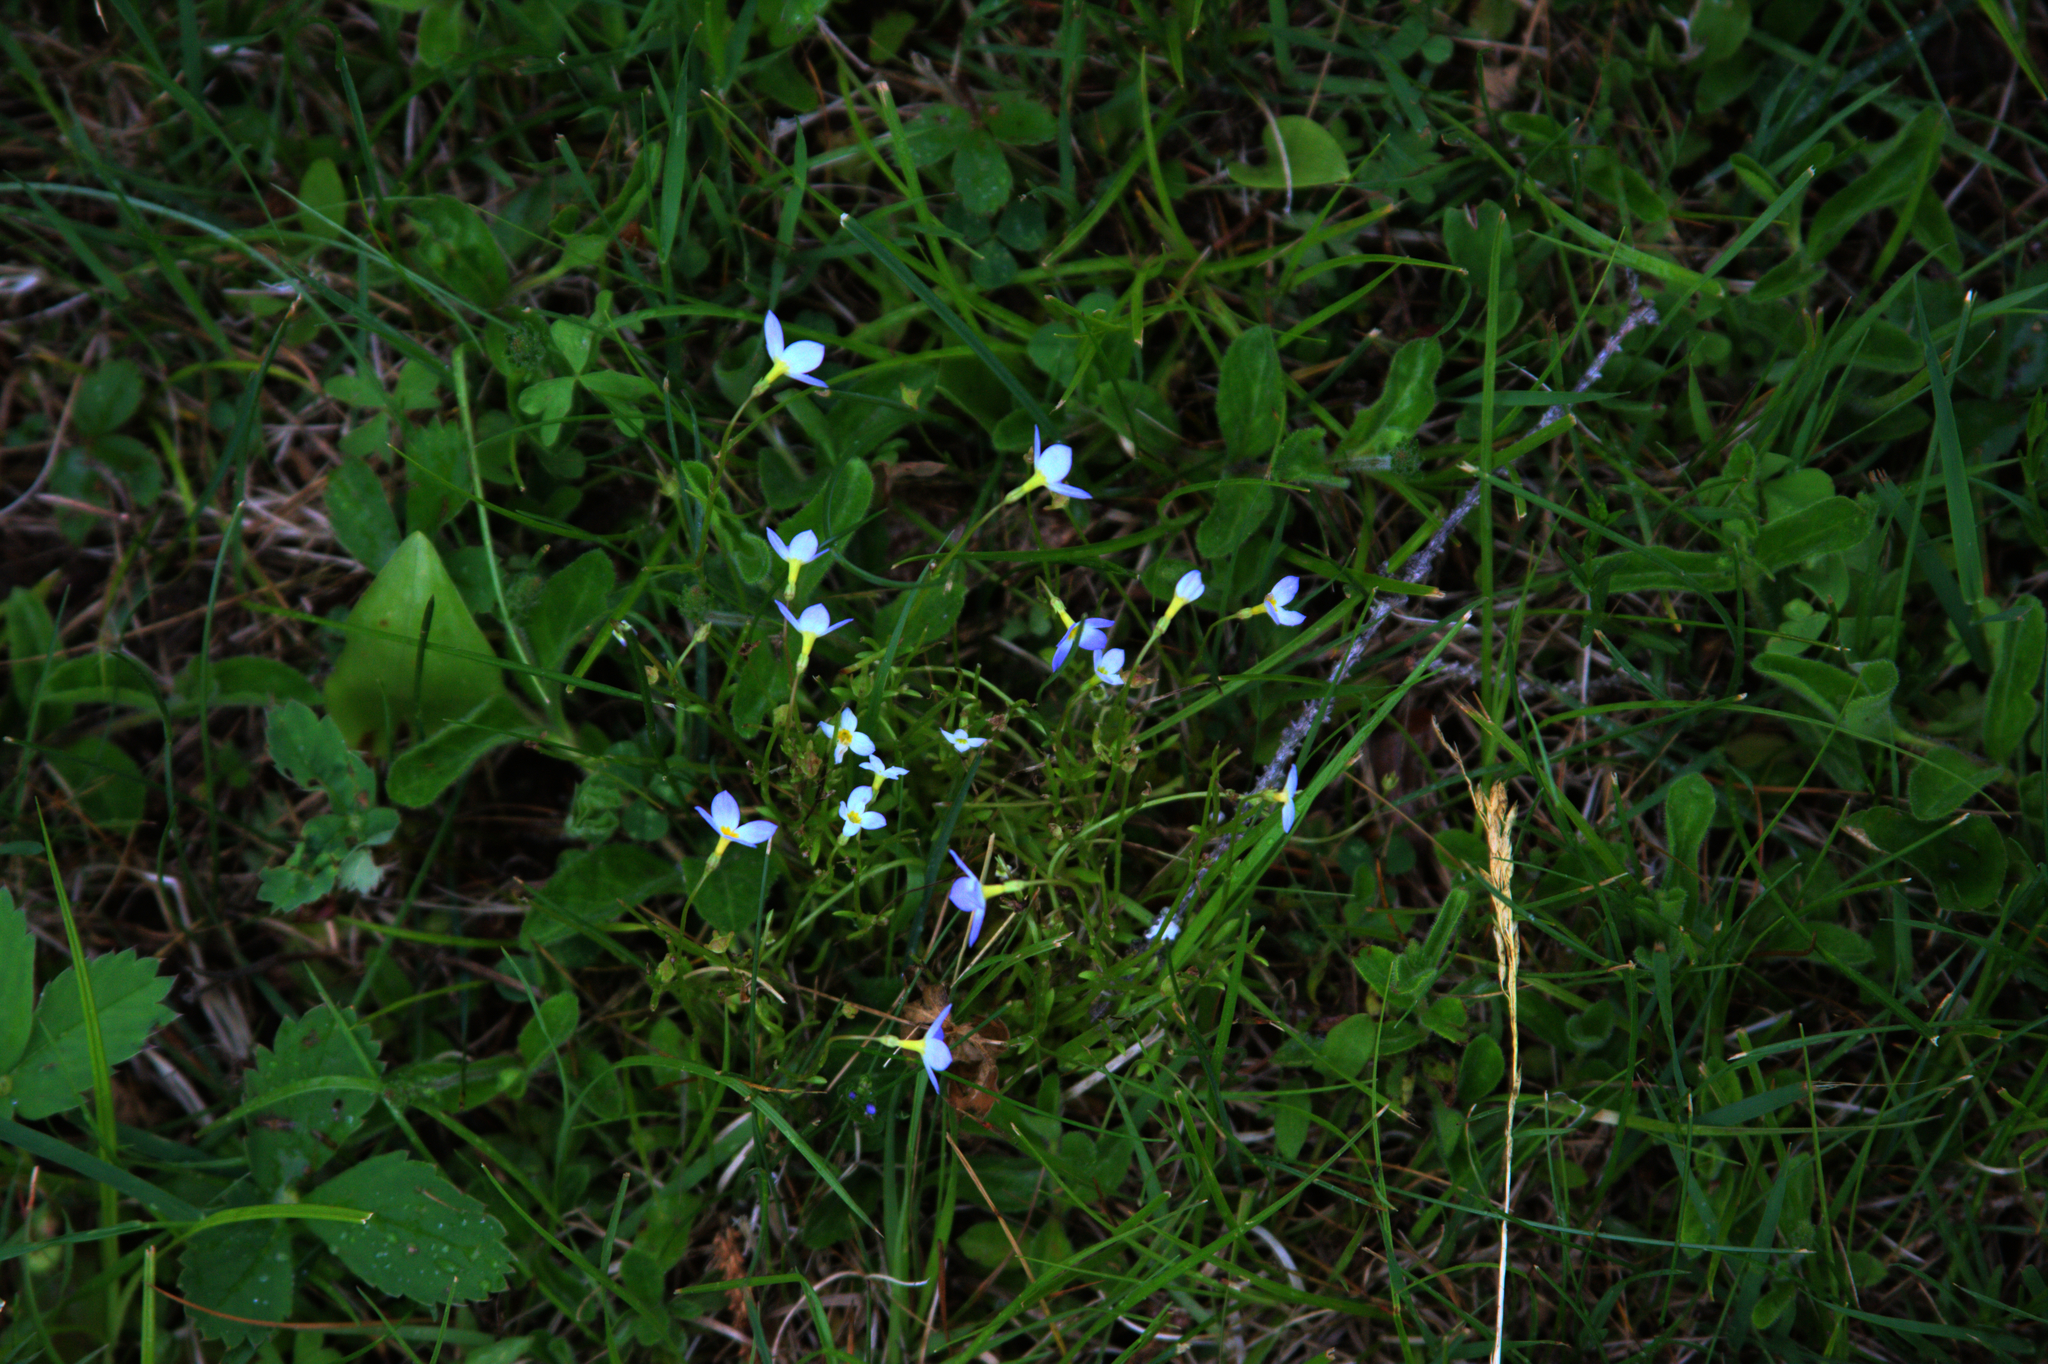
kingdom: Plantae
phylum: Tracheophyta
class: Magnoliopsida
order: Gentianales
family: Rubiaceae
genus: Houstonia
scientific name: Houstonia caerulea
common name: Bluets
